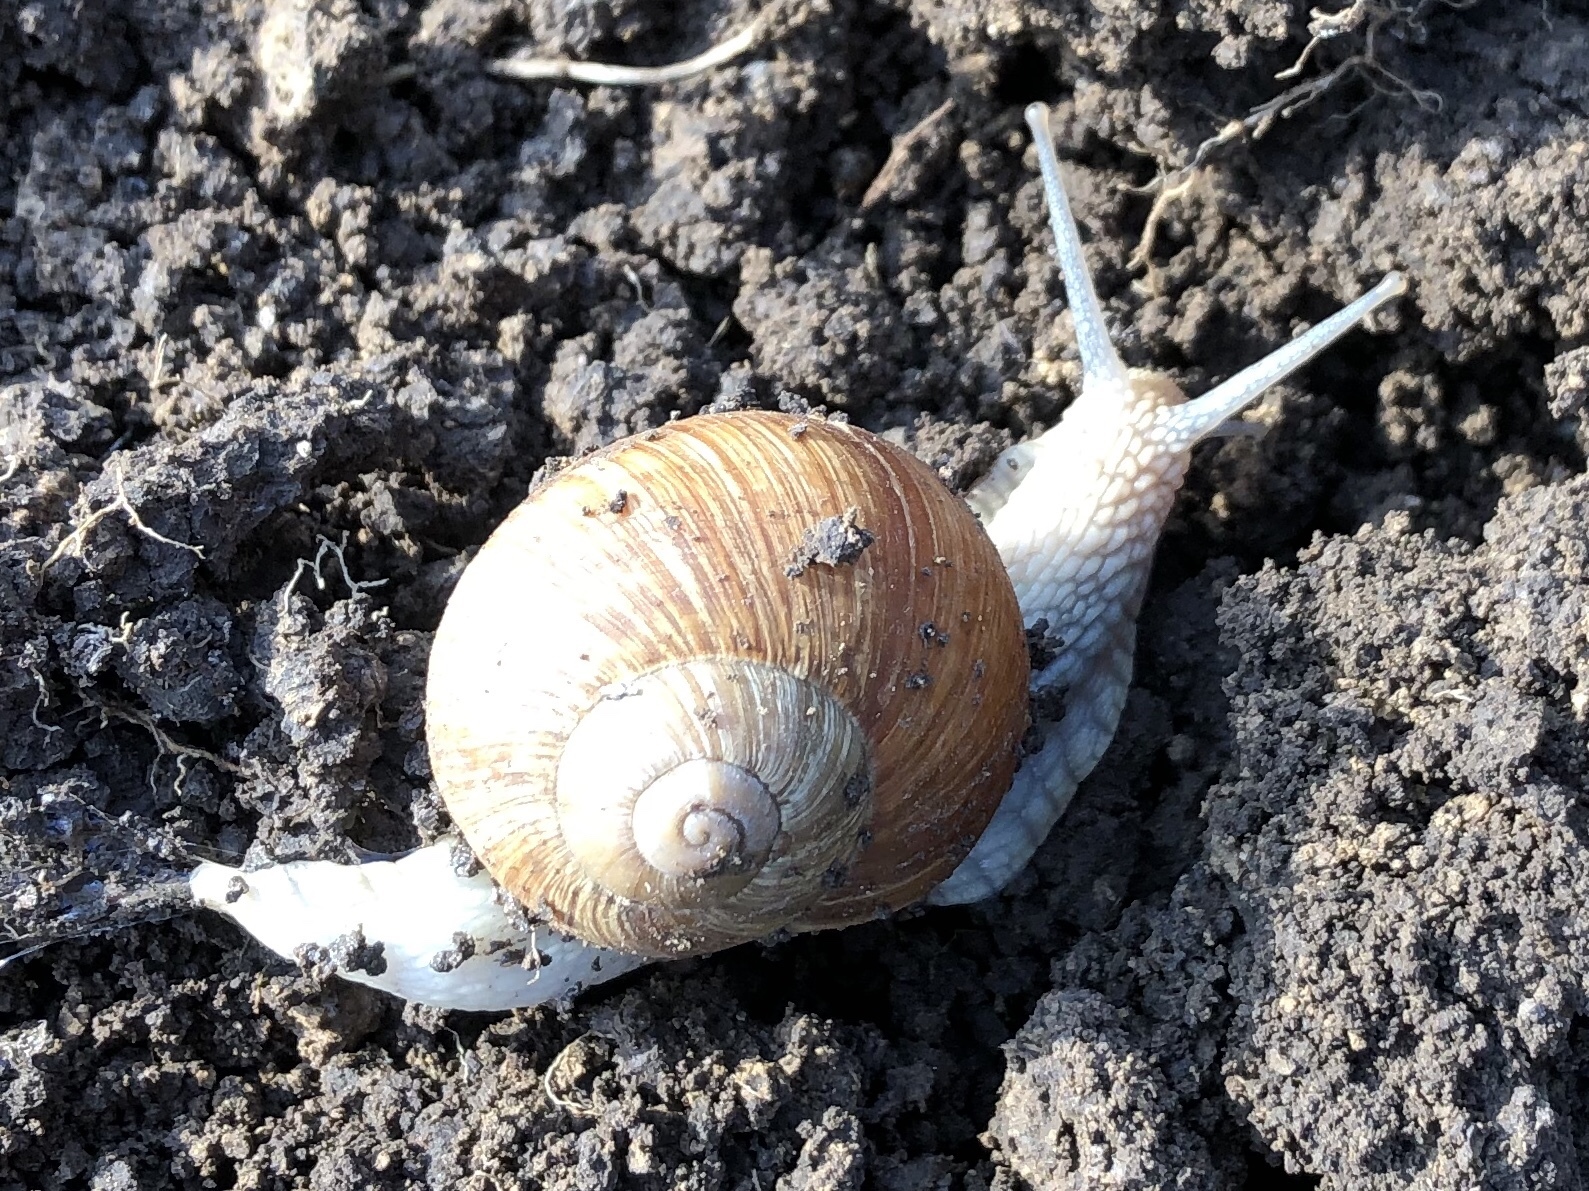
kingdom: Animalia
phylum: Mollusca
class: Gastropoda
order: Stylommatophora
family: Helicidae
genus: Helix
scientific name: Helix pomatia
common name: Roman snail
